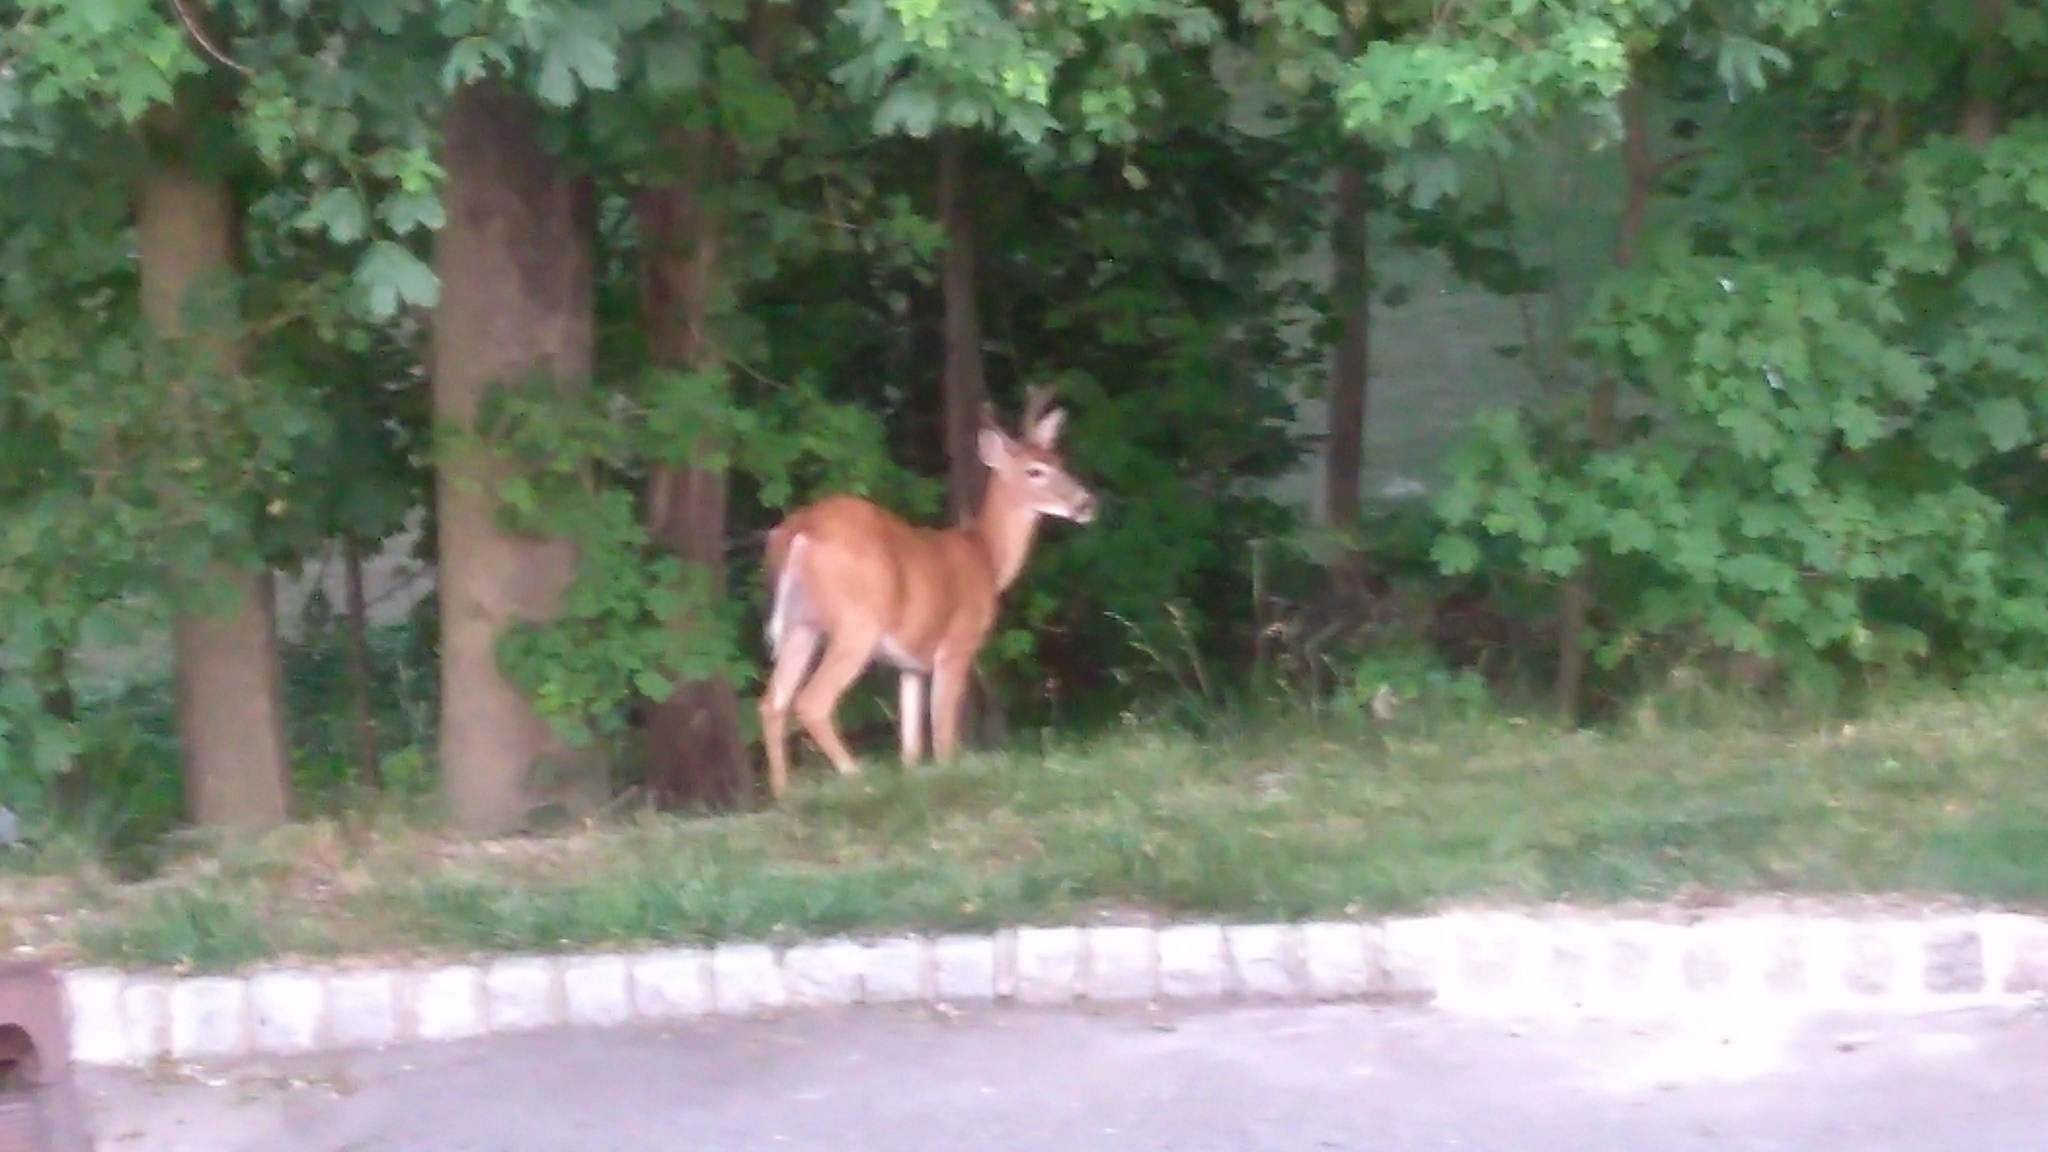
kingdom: Animalia
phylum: Chordata
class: Mammalia
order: Artiodactyla
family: Cervidae
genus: Odocoileus
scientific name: Odocoileus virginianus
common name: White-tailed deer
